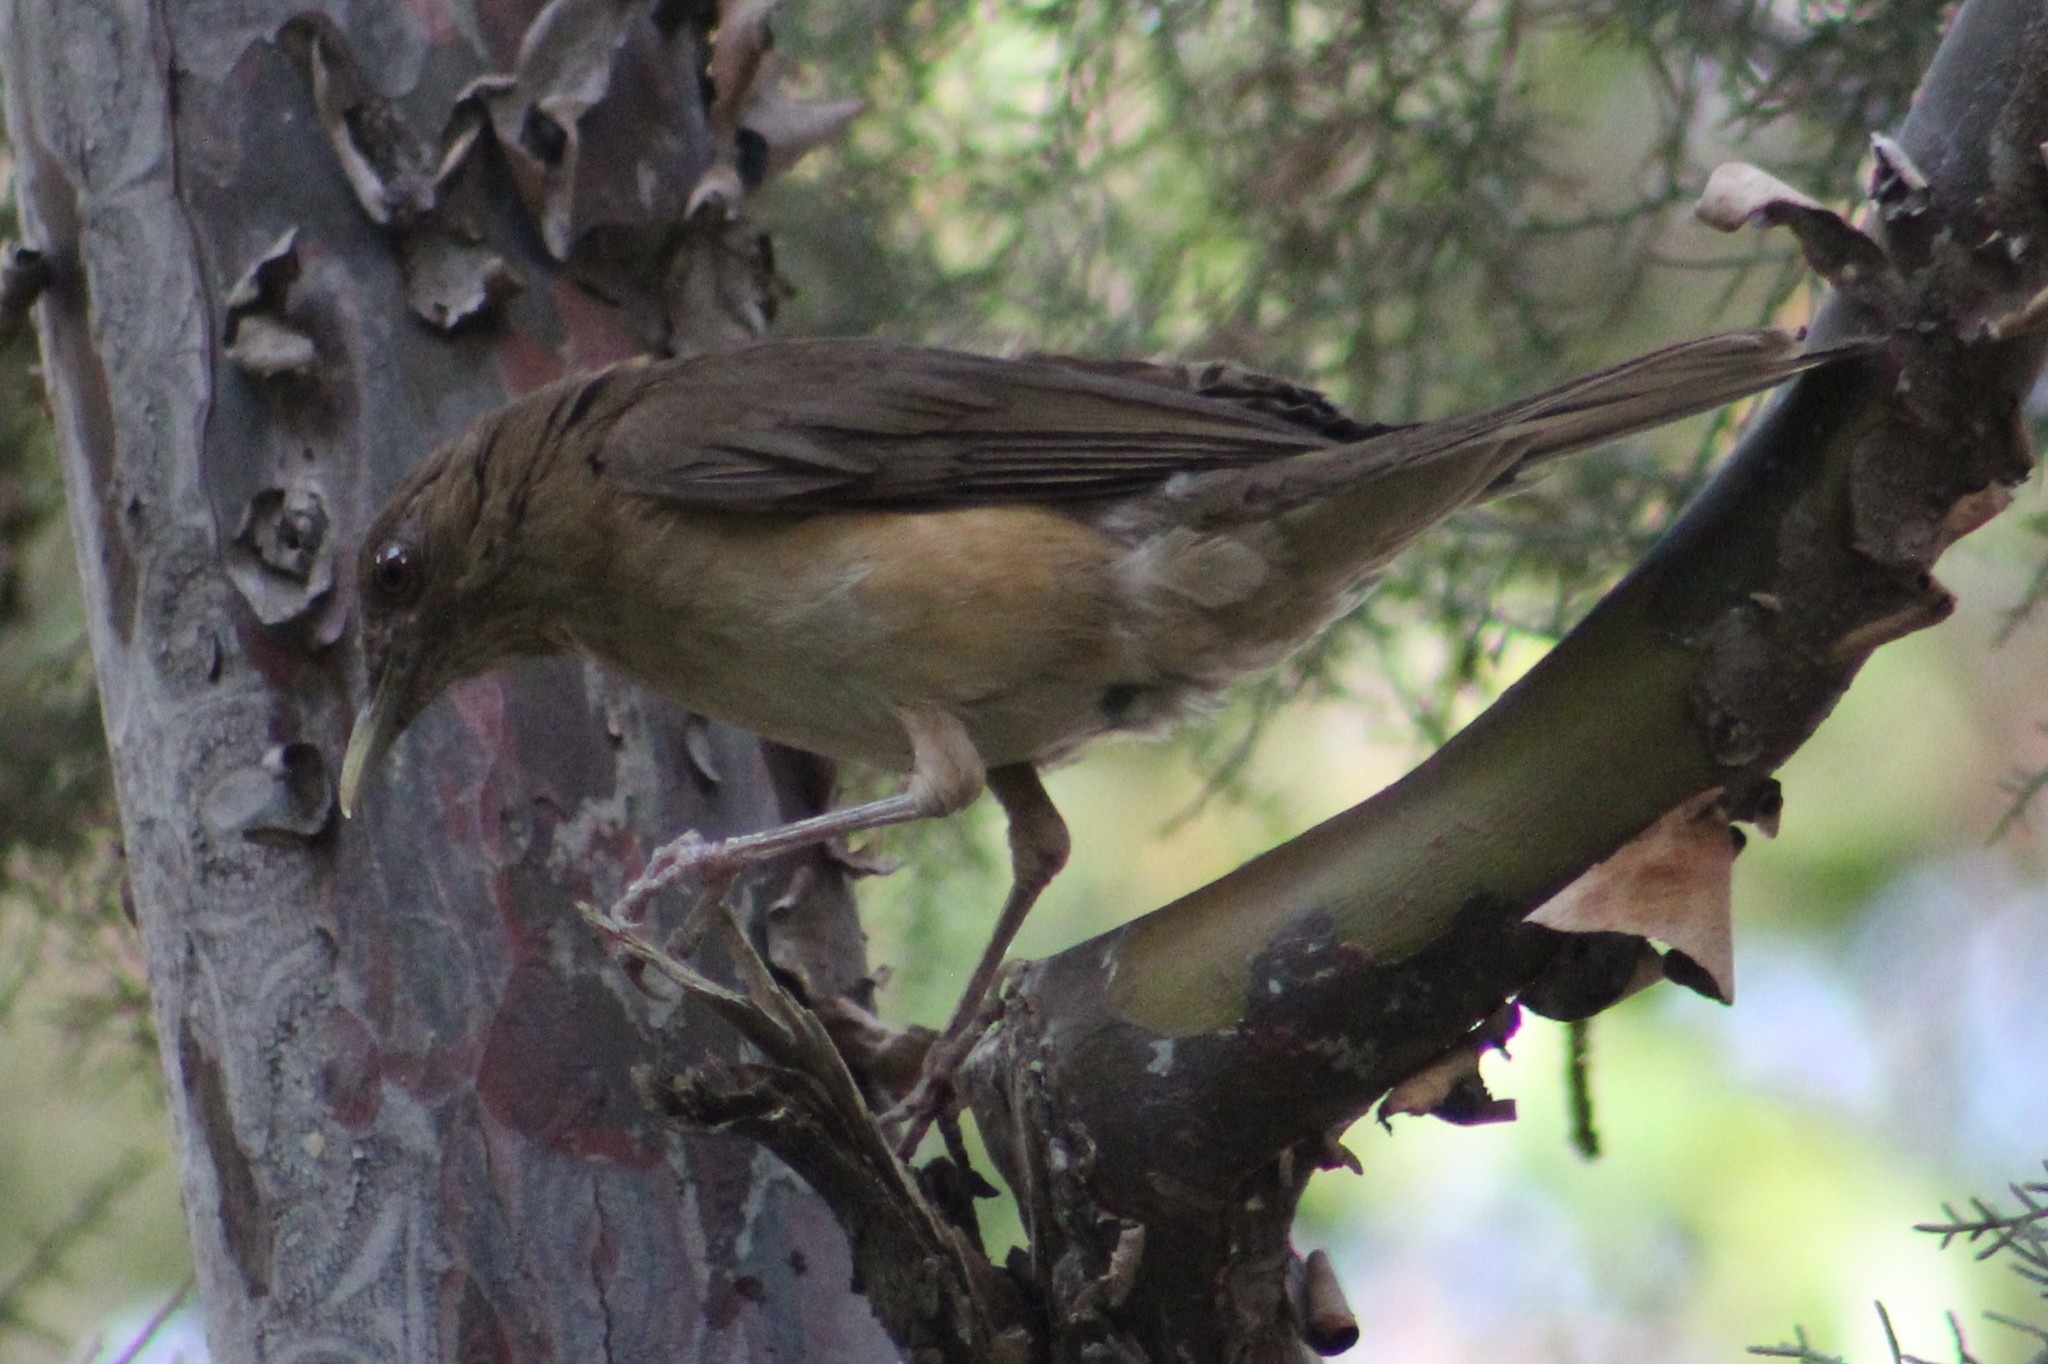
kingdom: Animalia
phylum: Chordata
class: Aves
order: Passeriformes
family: Turdidae
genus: Turdus
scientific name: Turdus grayi
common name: Clay-colored thrush
